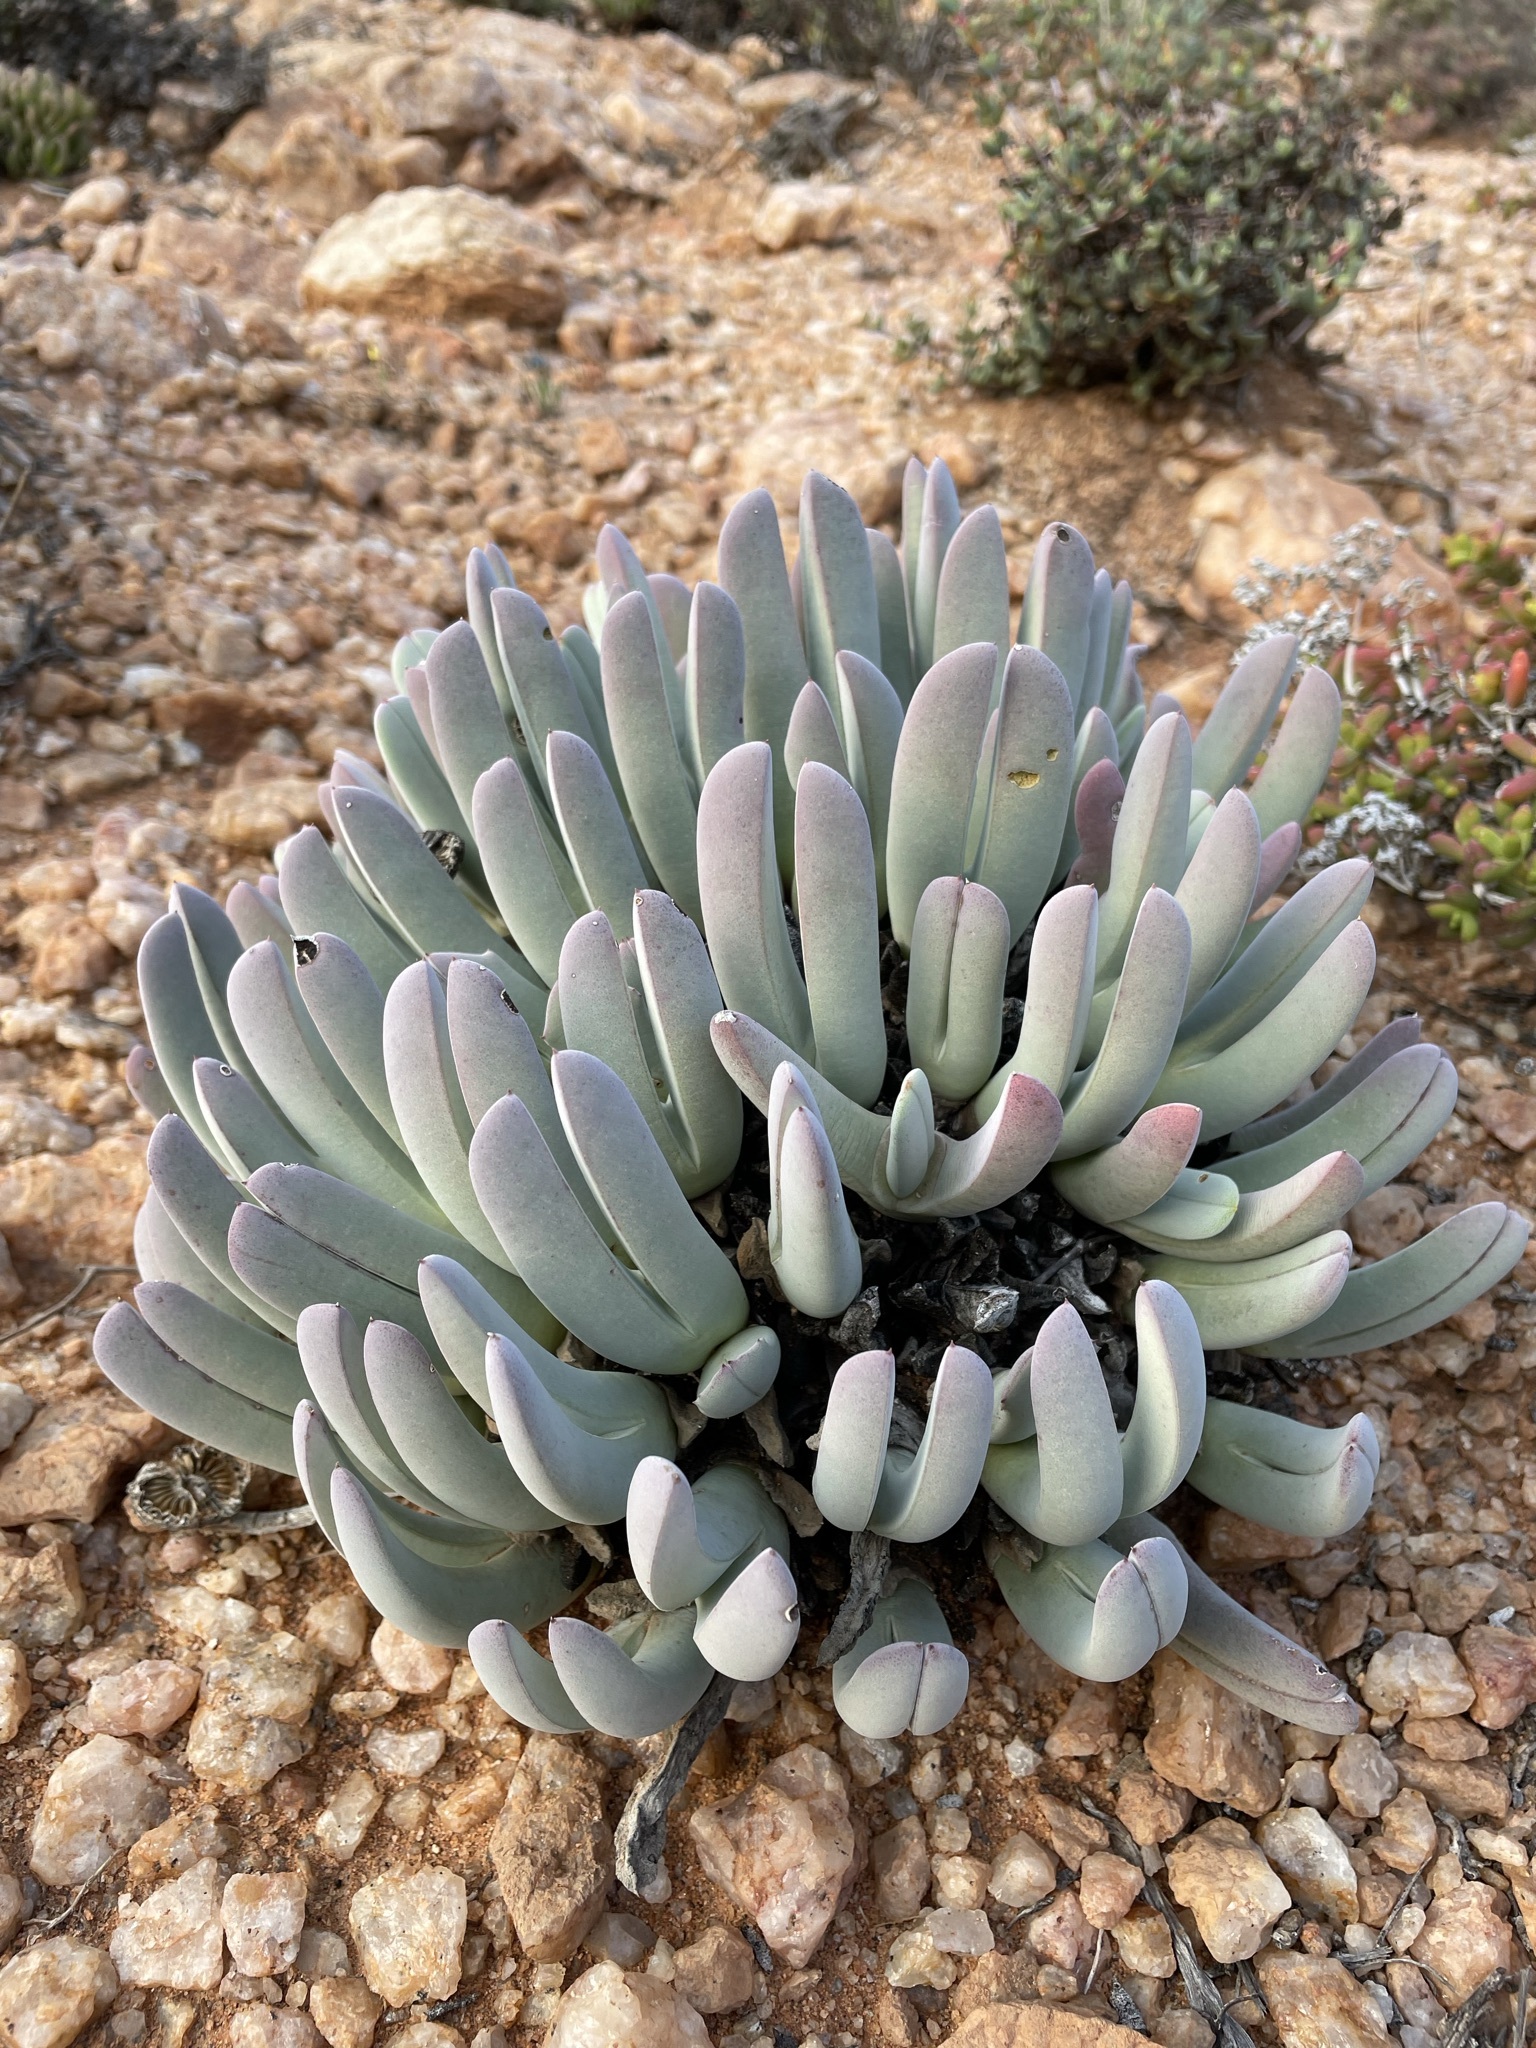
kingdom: Plantae
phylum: Tracheophyta
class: Magnoliopsida
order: Caryophyllales
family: Aizoaceae
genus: Cheiridopsis
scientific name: Cheiridopsis denticulata
